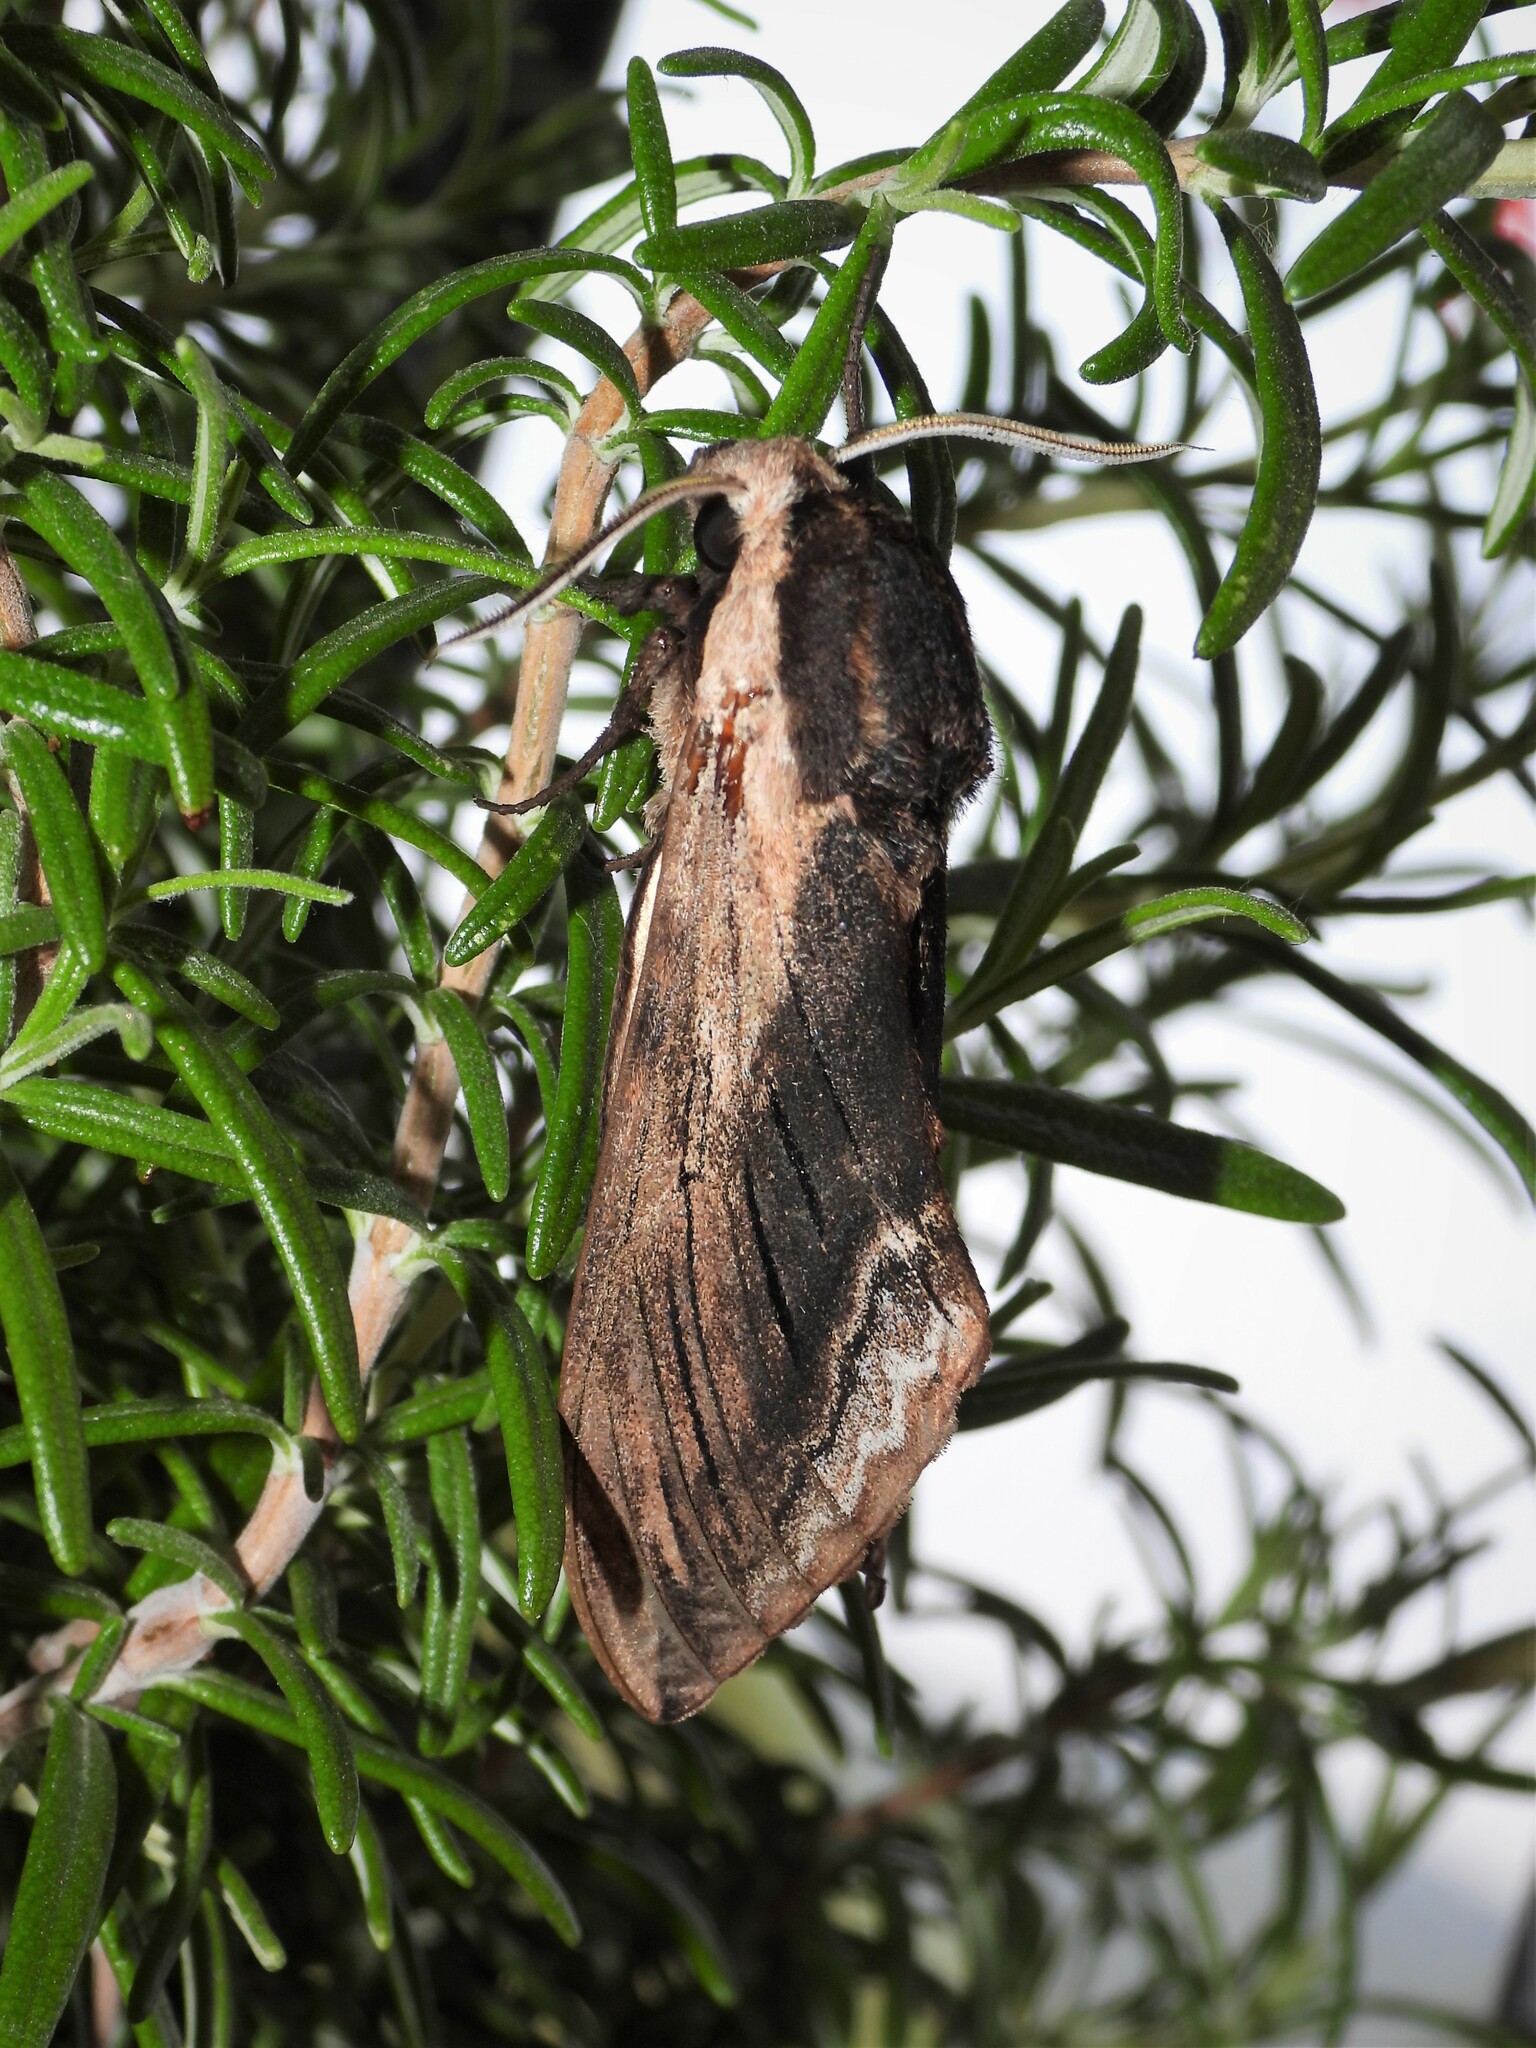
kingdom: Animalia
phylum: Arthropoda
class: Insecta
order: Lepidoptera
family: Sphingidae
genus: Sphinx
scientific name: Sphinx ligustri
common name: Privet hawk-moth
